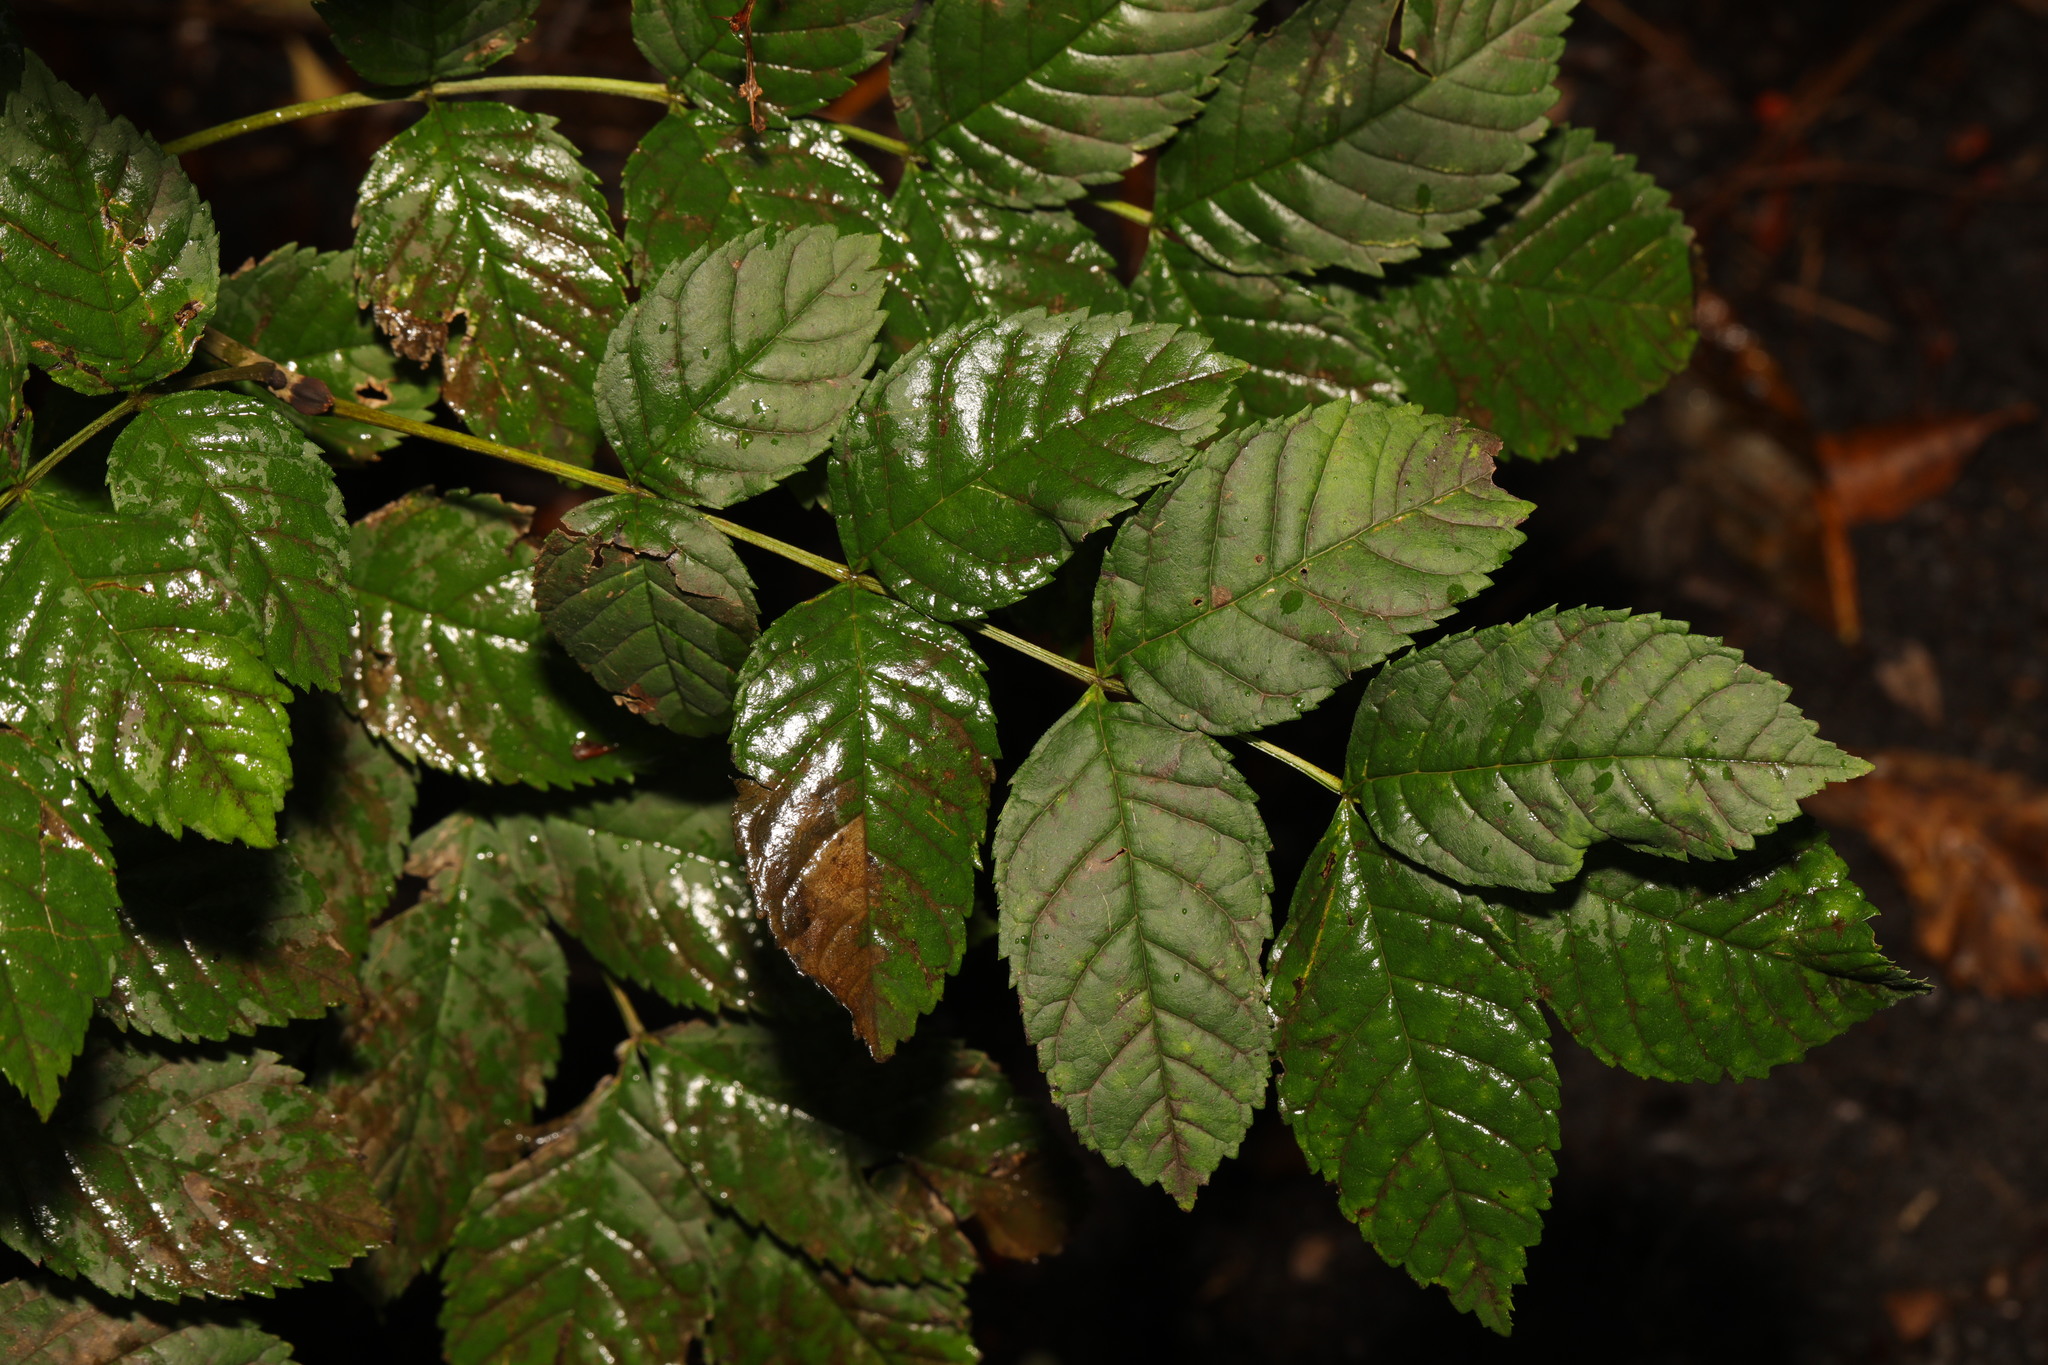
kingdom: Plantae
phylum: Tracheophyta
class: Magnoliopsida
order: Lamiales
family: Oleaceae
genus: Fraxinus
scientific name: Fraxinus excelsior
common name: European ash
